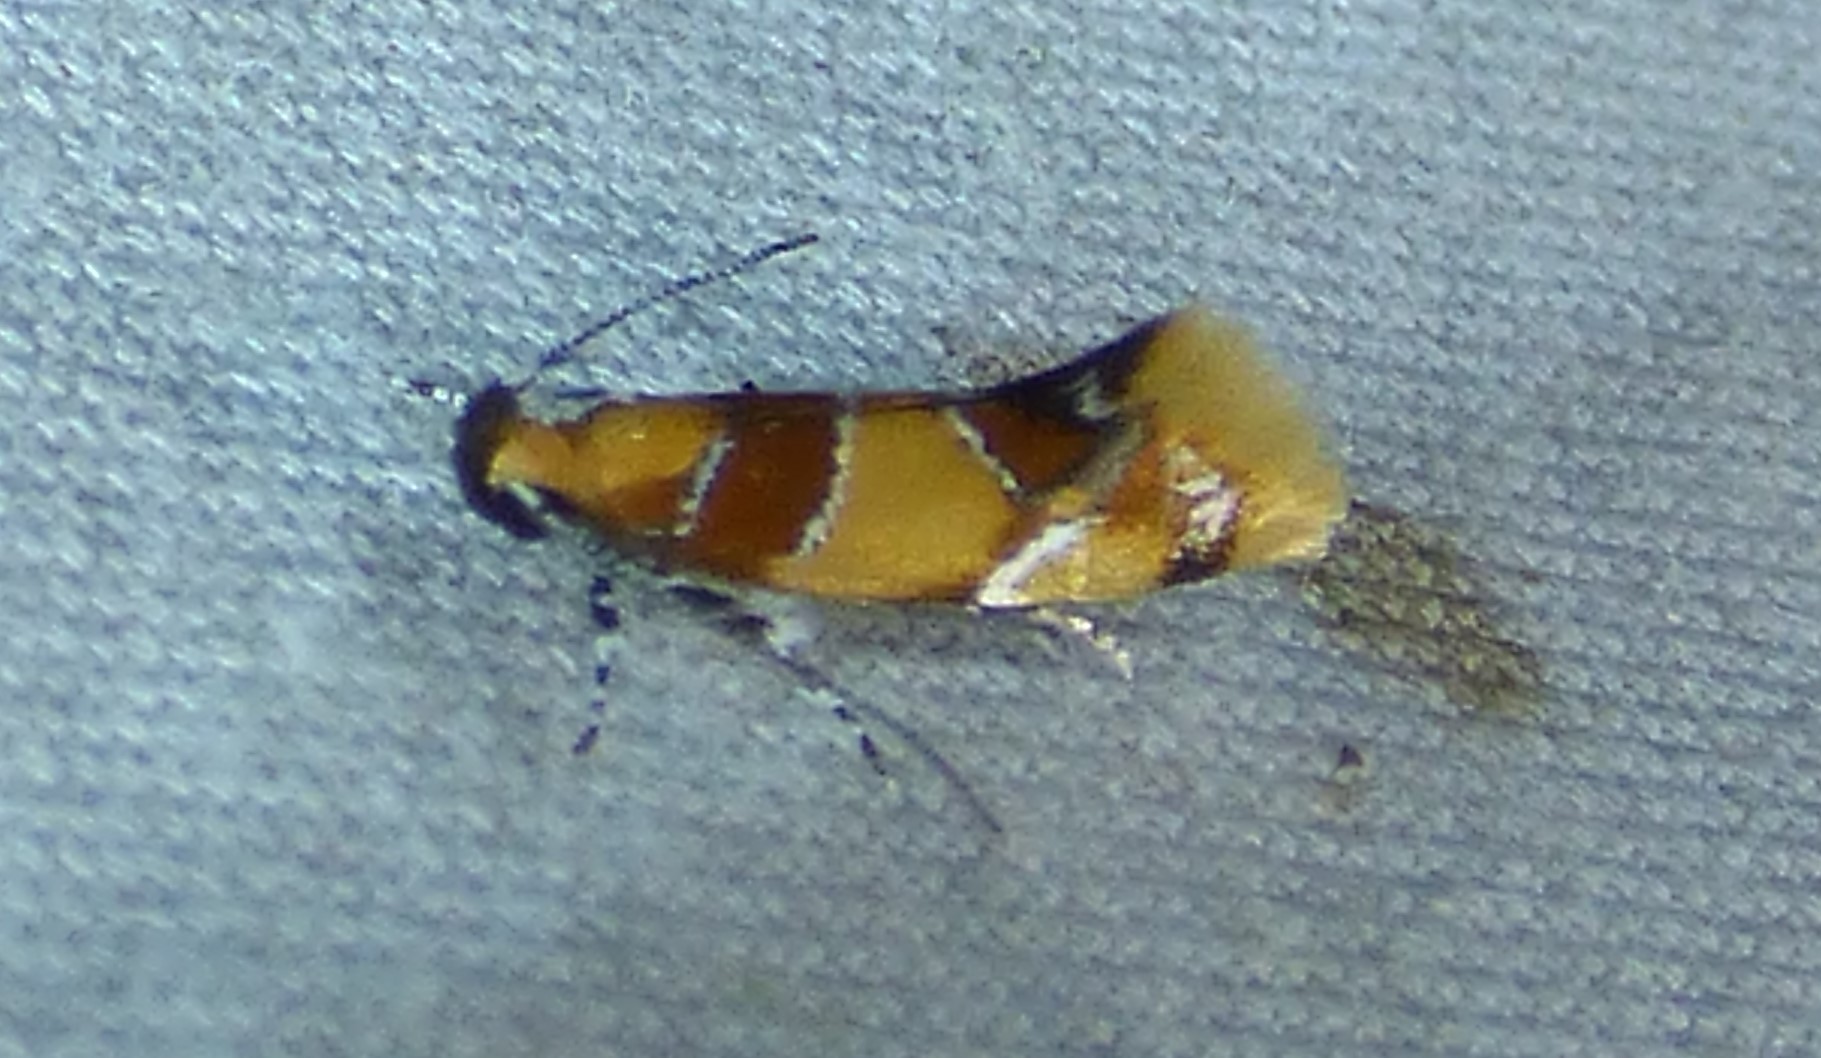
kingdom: Animalia
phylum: Arthropoda
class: Insecta
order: Lepidoptera
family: Oecophoridae
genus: Callima
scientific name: Callima argenticinctella
